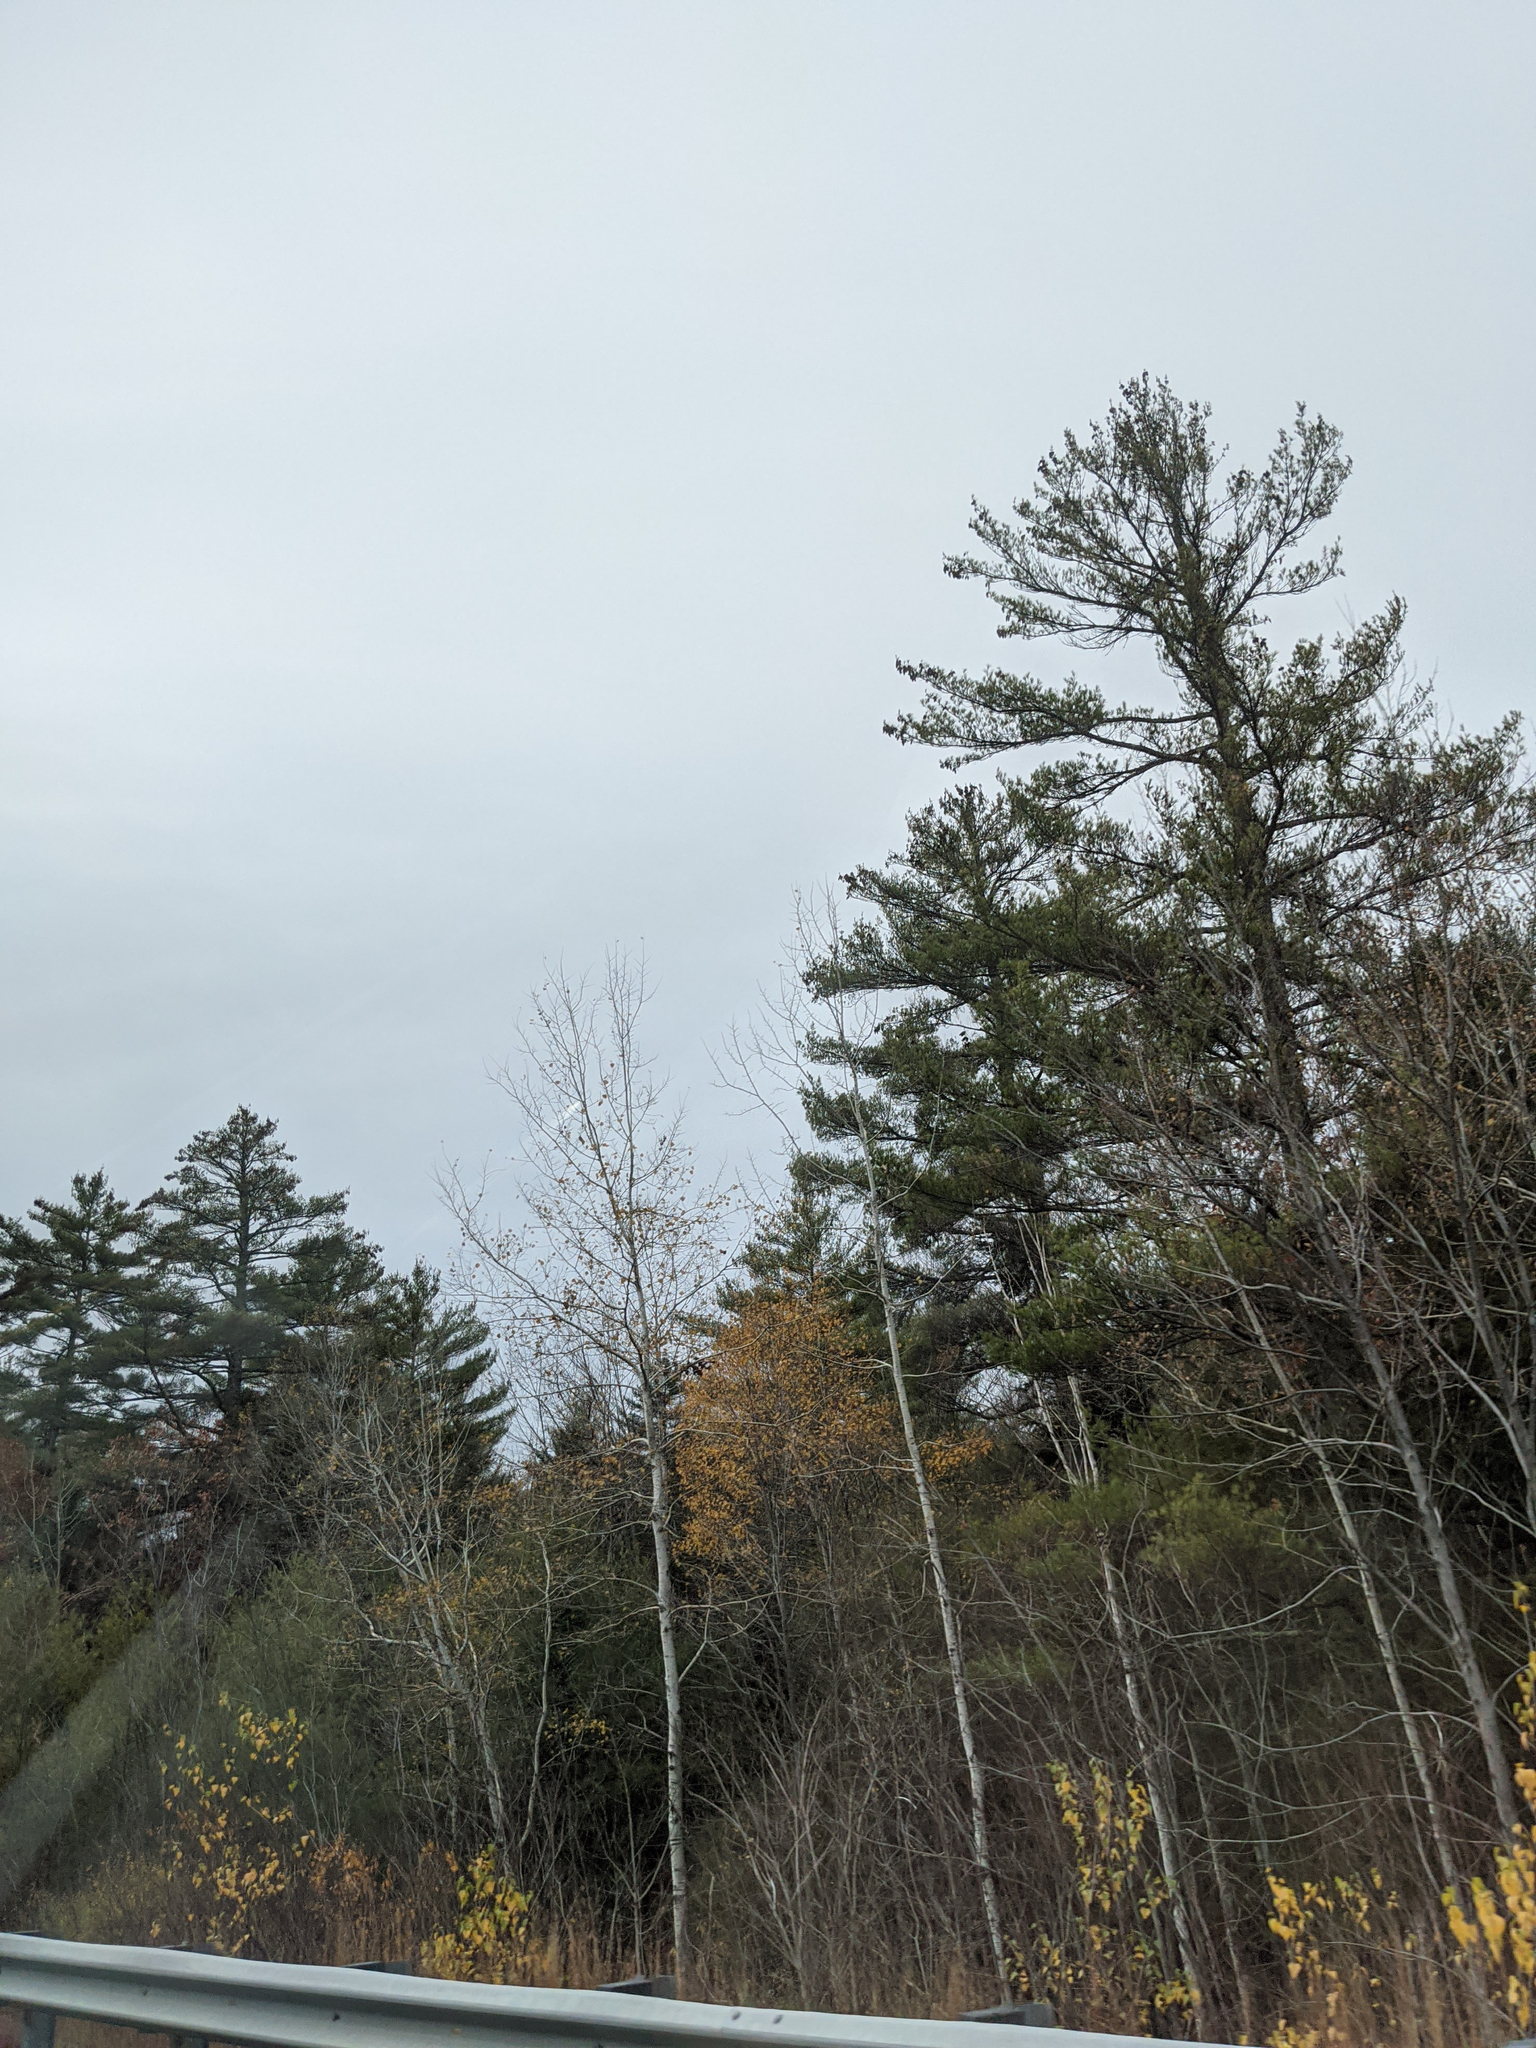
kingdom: Plantae
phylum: Tracheophyta
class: Pinopsida
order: Pinales
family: Pinaceae
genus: Pinus
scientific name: Pinus strobus
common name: Weymouth pine
